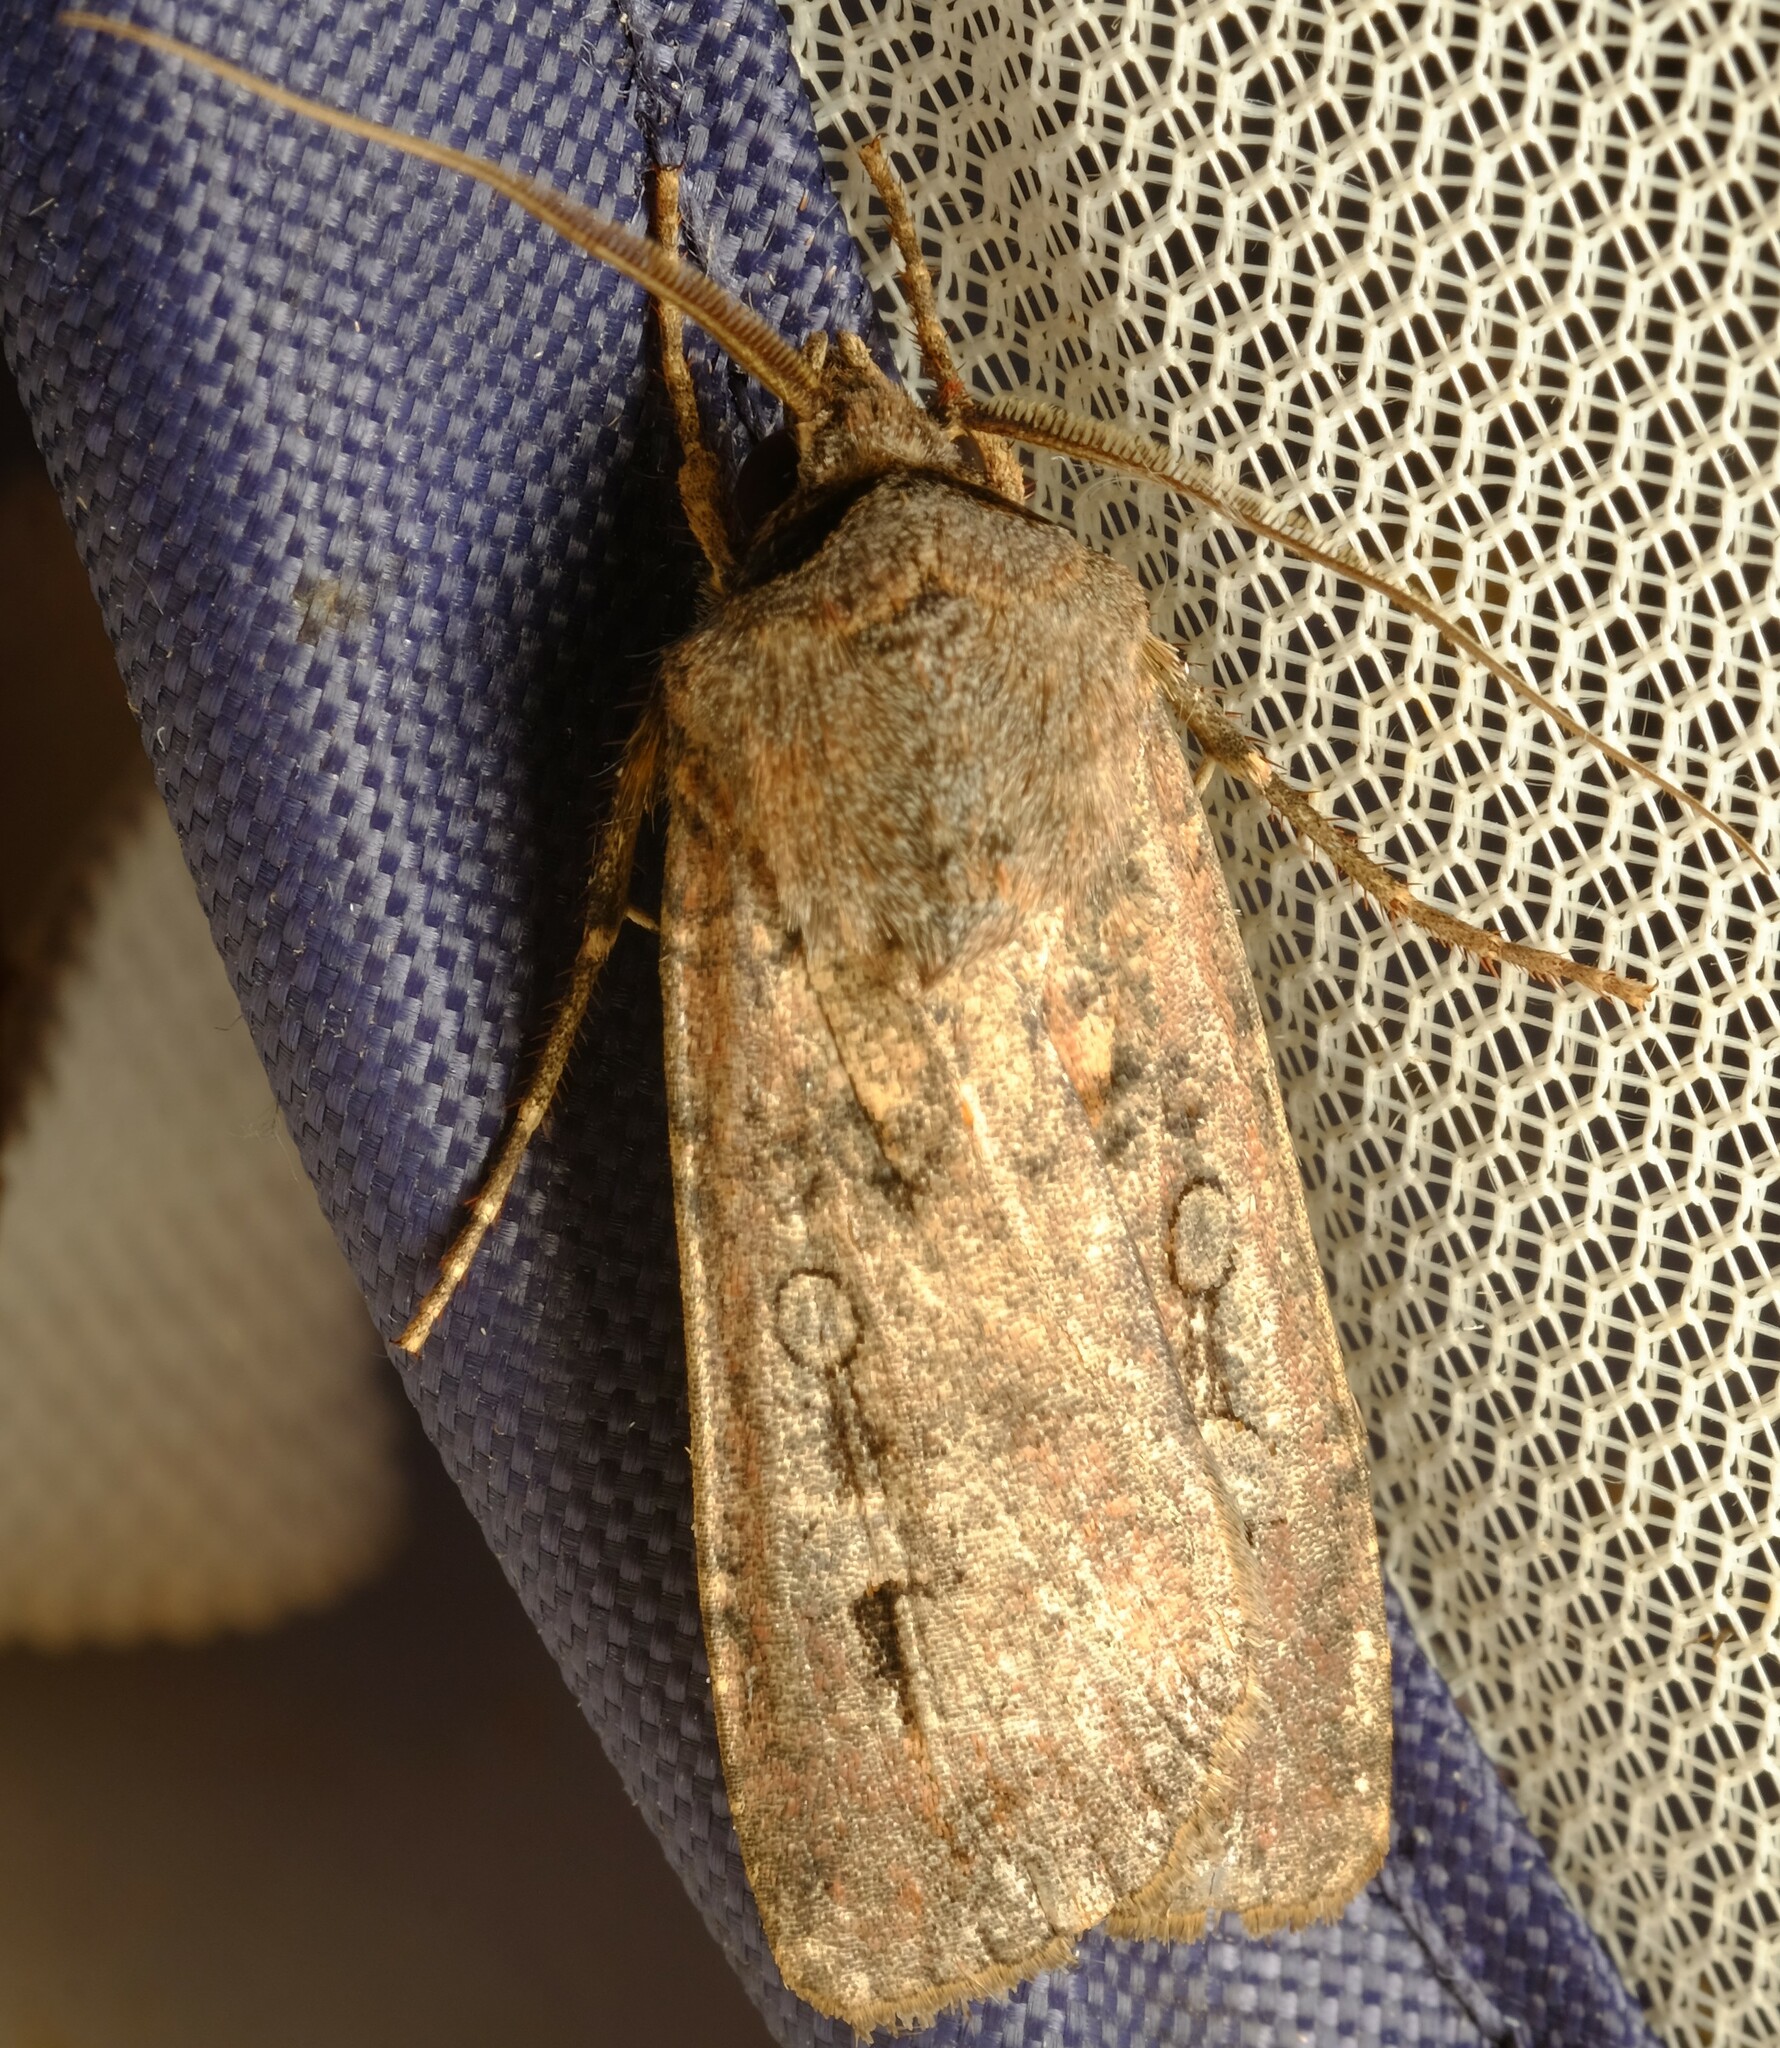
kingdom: Animalia
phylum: Arthropoda
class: Insecta
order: Lepidoptera
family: Noctuidae
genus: Agrotis
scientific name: Agrotis infusa
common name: Bogong moth
